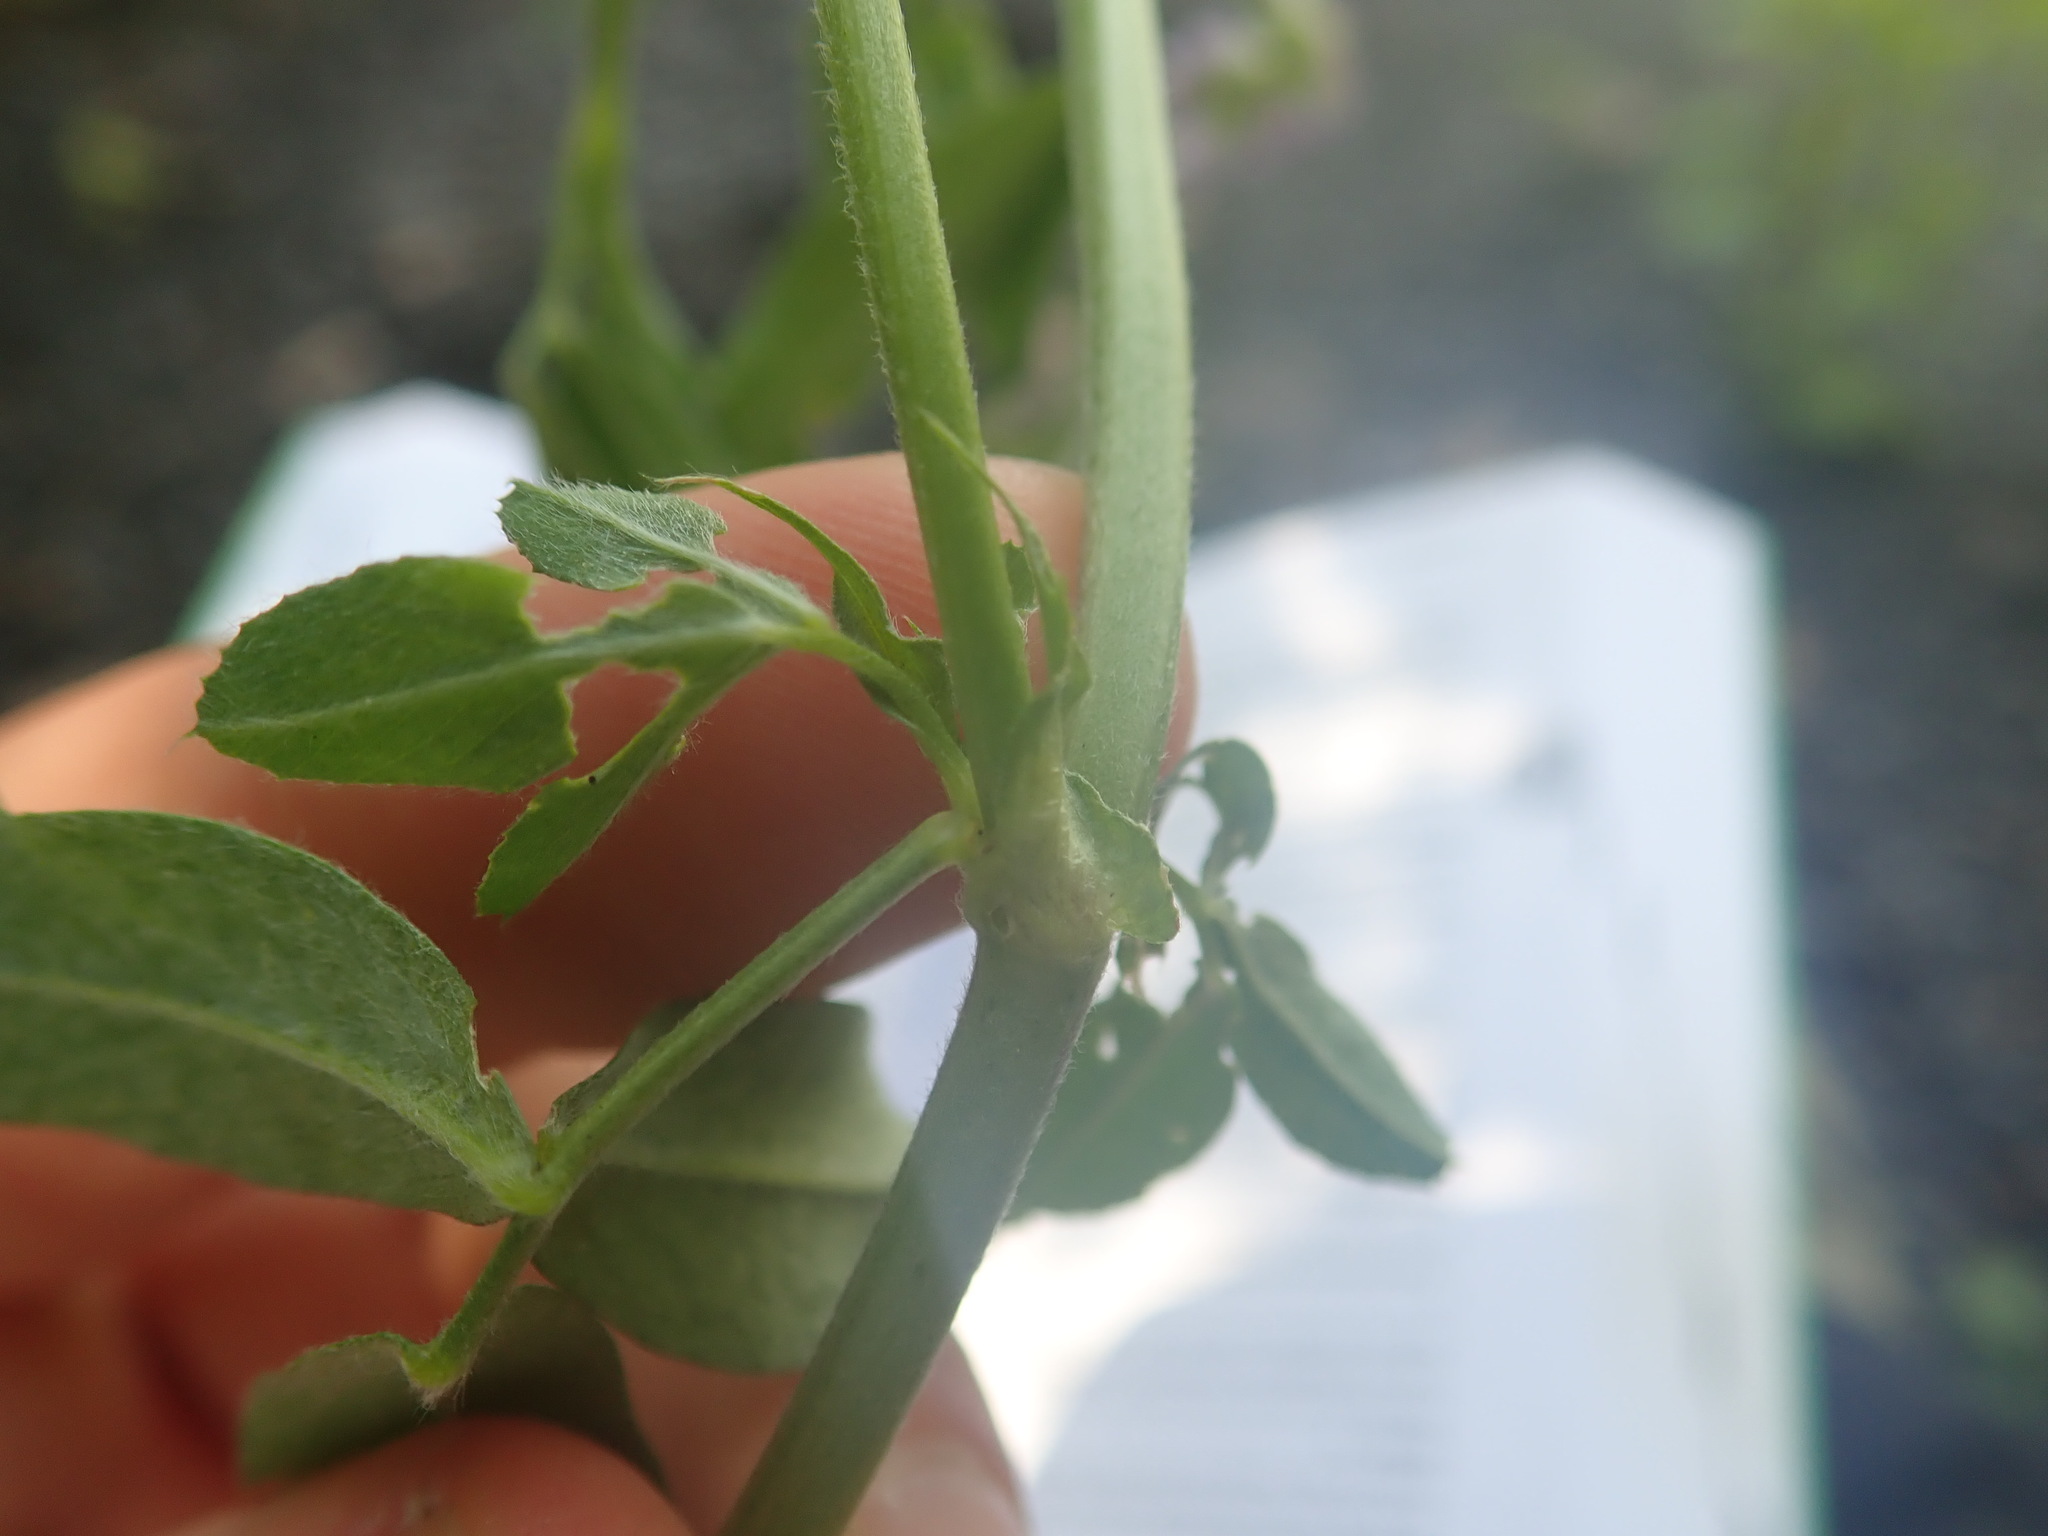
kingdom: Plantae
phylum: Tracheophyta
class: Magnoliopsida
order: Fabales
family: Fabaceae
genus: Medicago
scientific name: Medicago sativa
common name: Alfalfa
